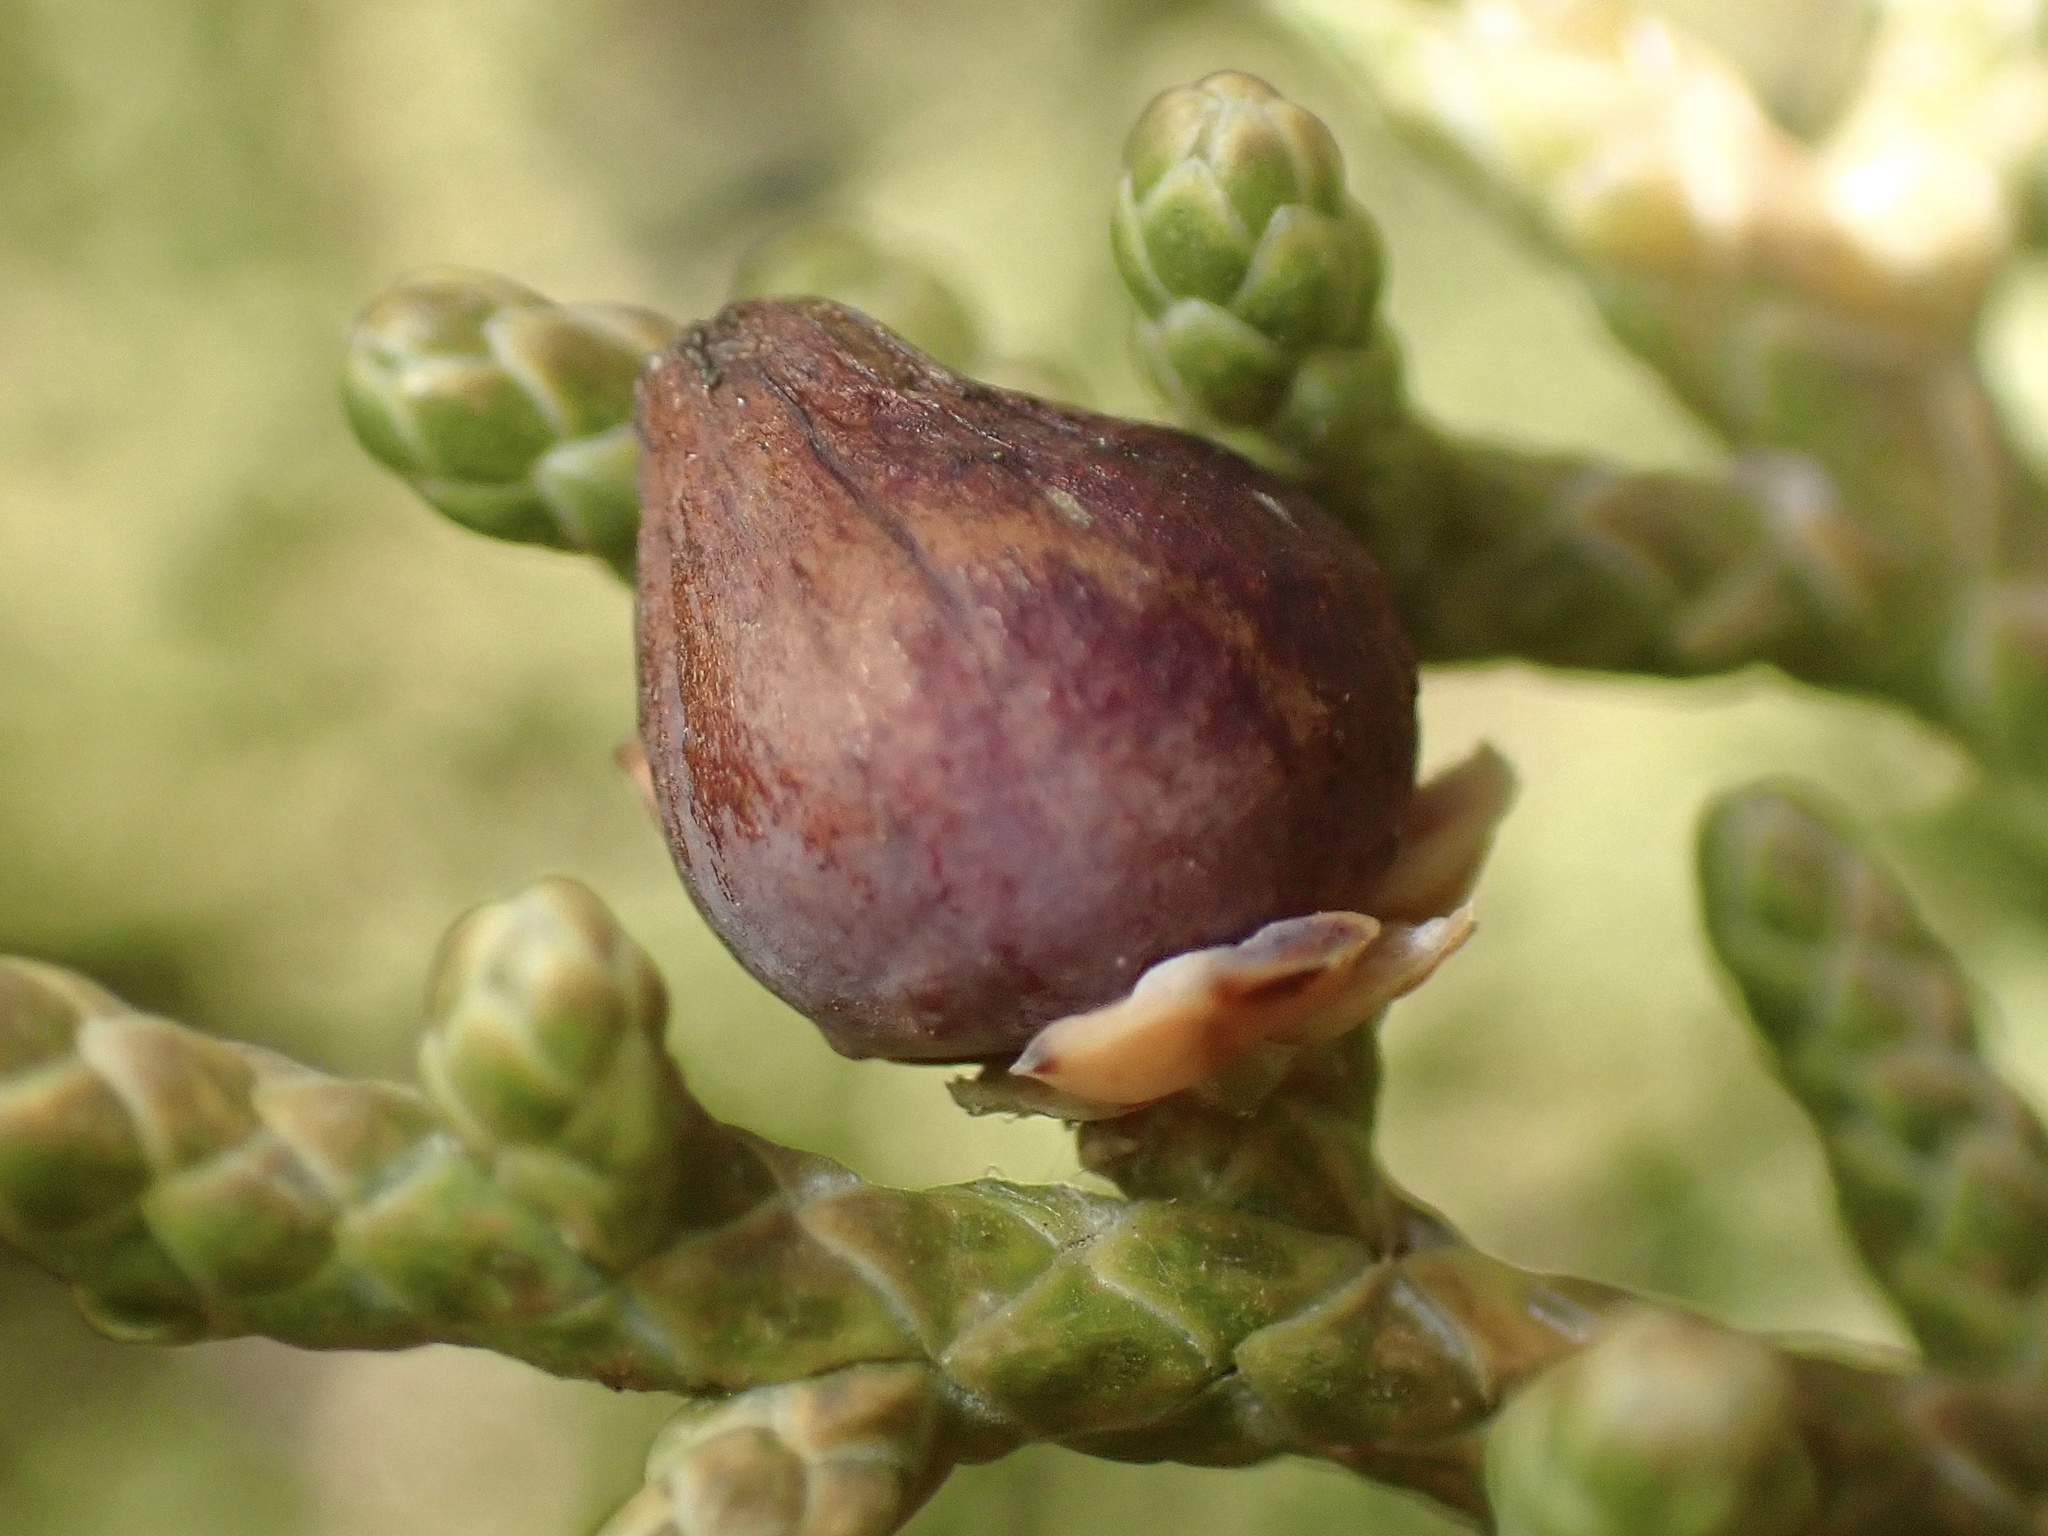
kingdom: Animalia
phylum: Arthropoda
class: Insecta
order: Diptera
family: Cecidomyiidae
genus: Walshomyia
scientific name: Walshomyia juniperina
